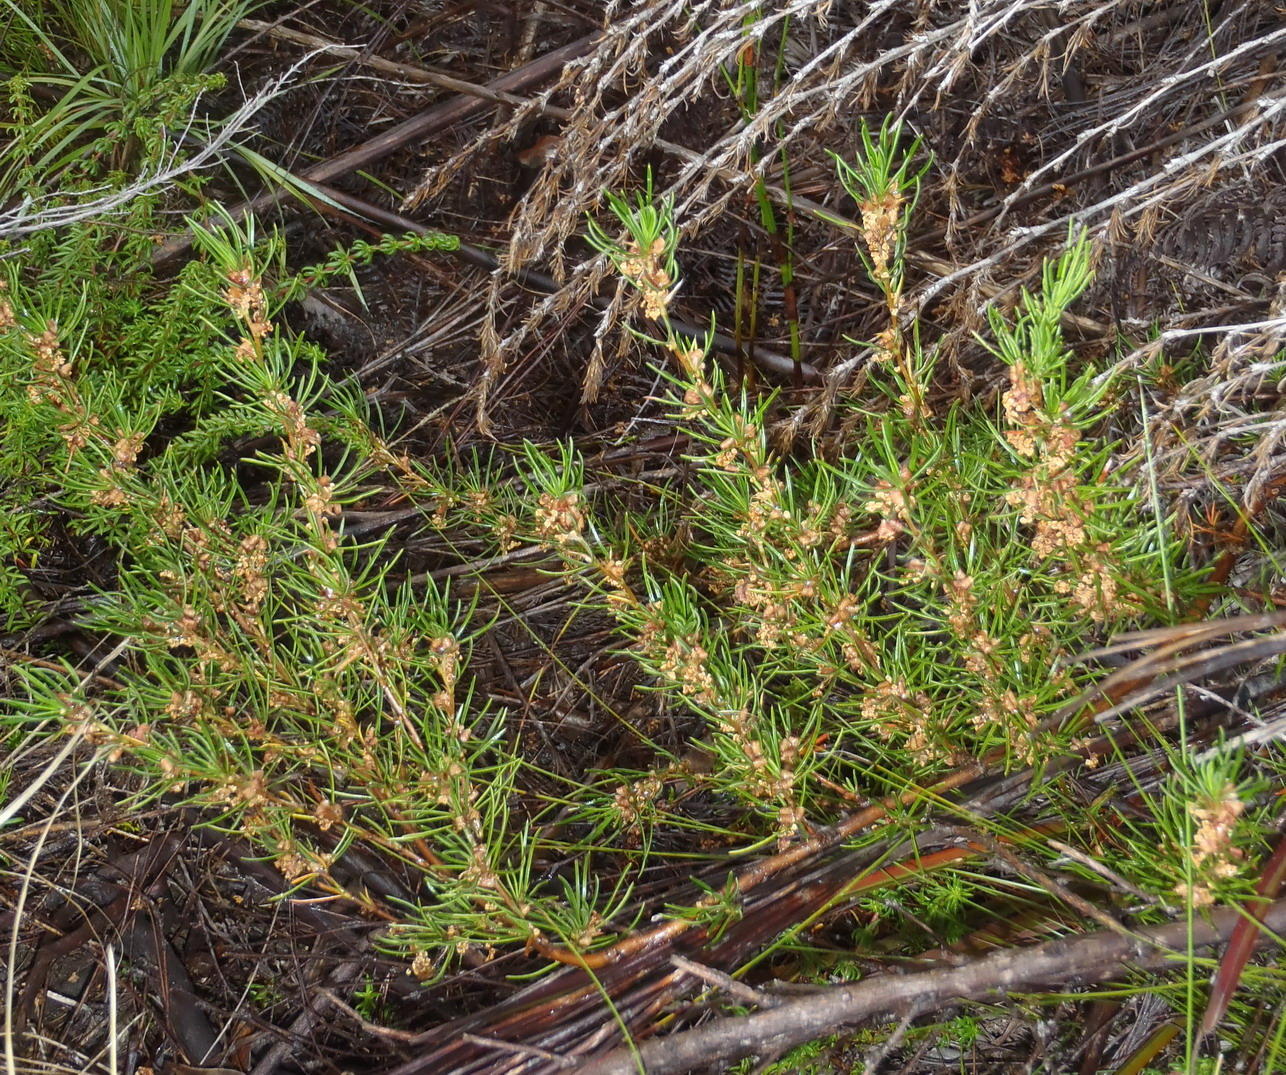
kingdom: Plantae
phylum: Tracheophyta
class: Magnoliopsida
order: Rosales
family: Rosaceae
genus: Cliffortia
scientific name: Cliffortia burchellii
